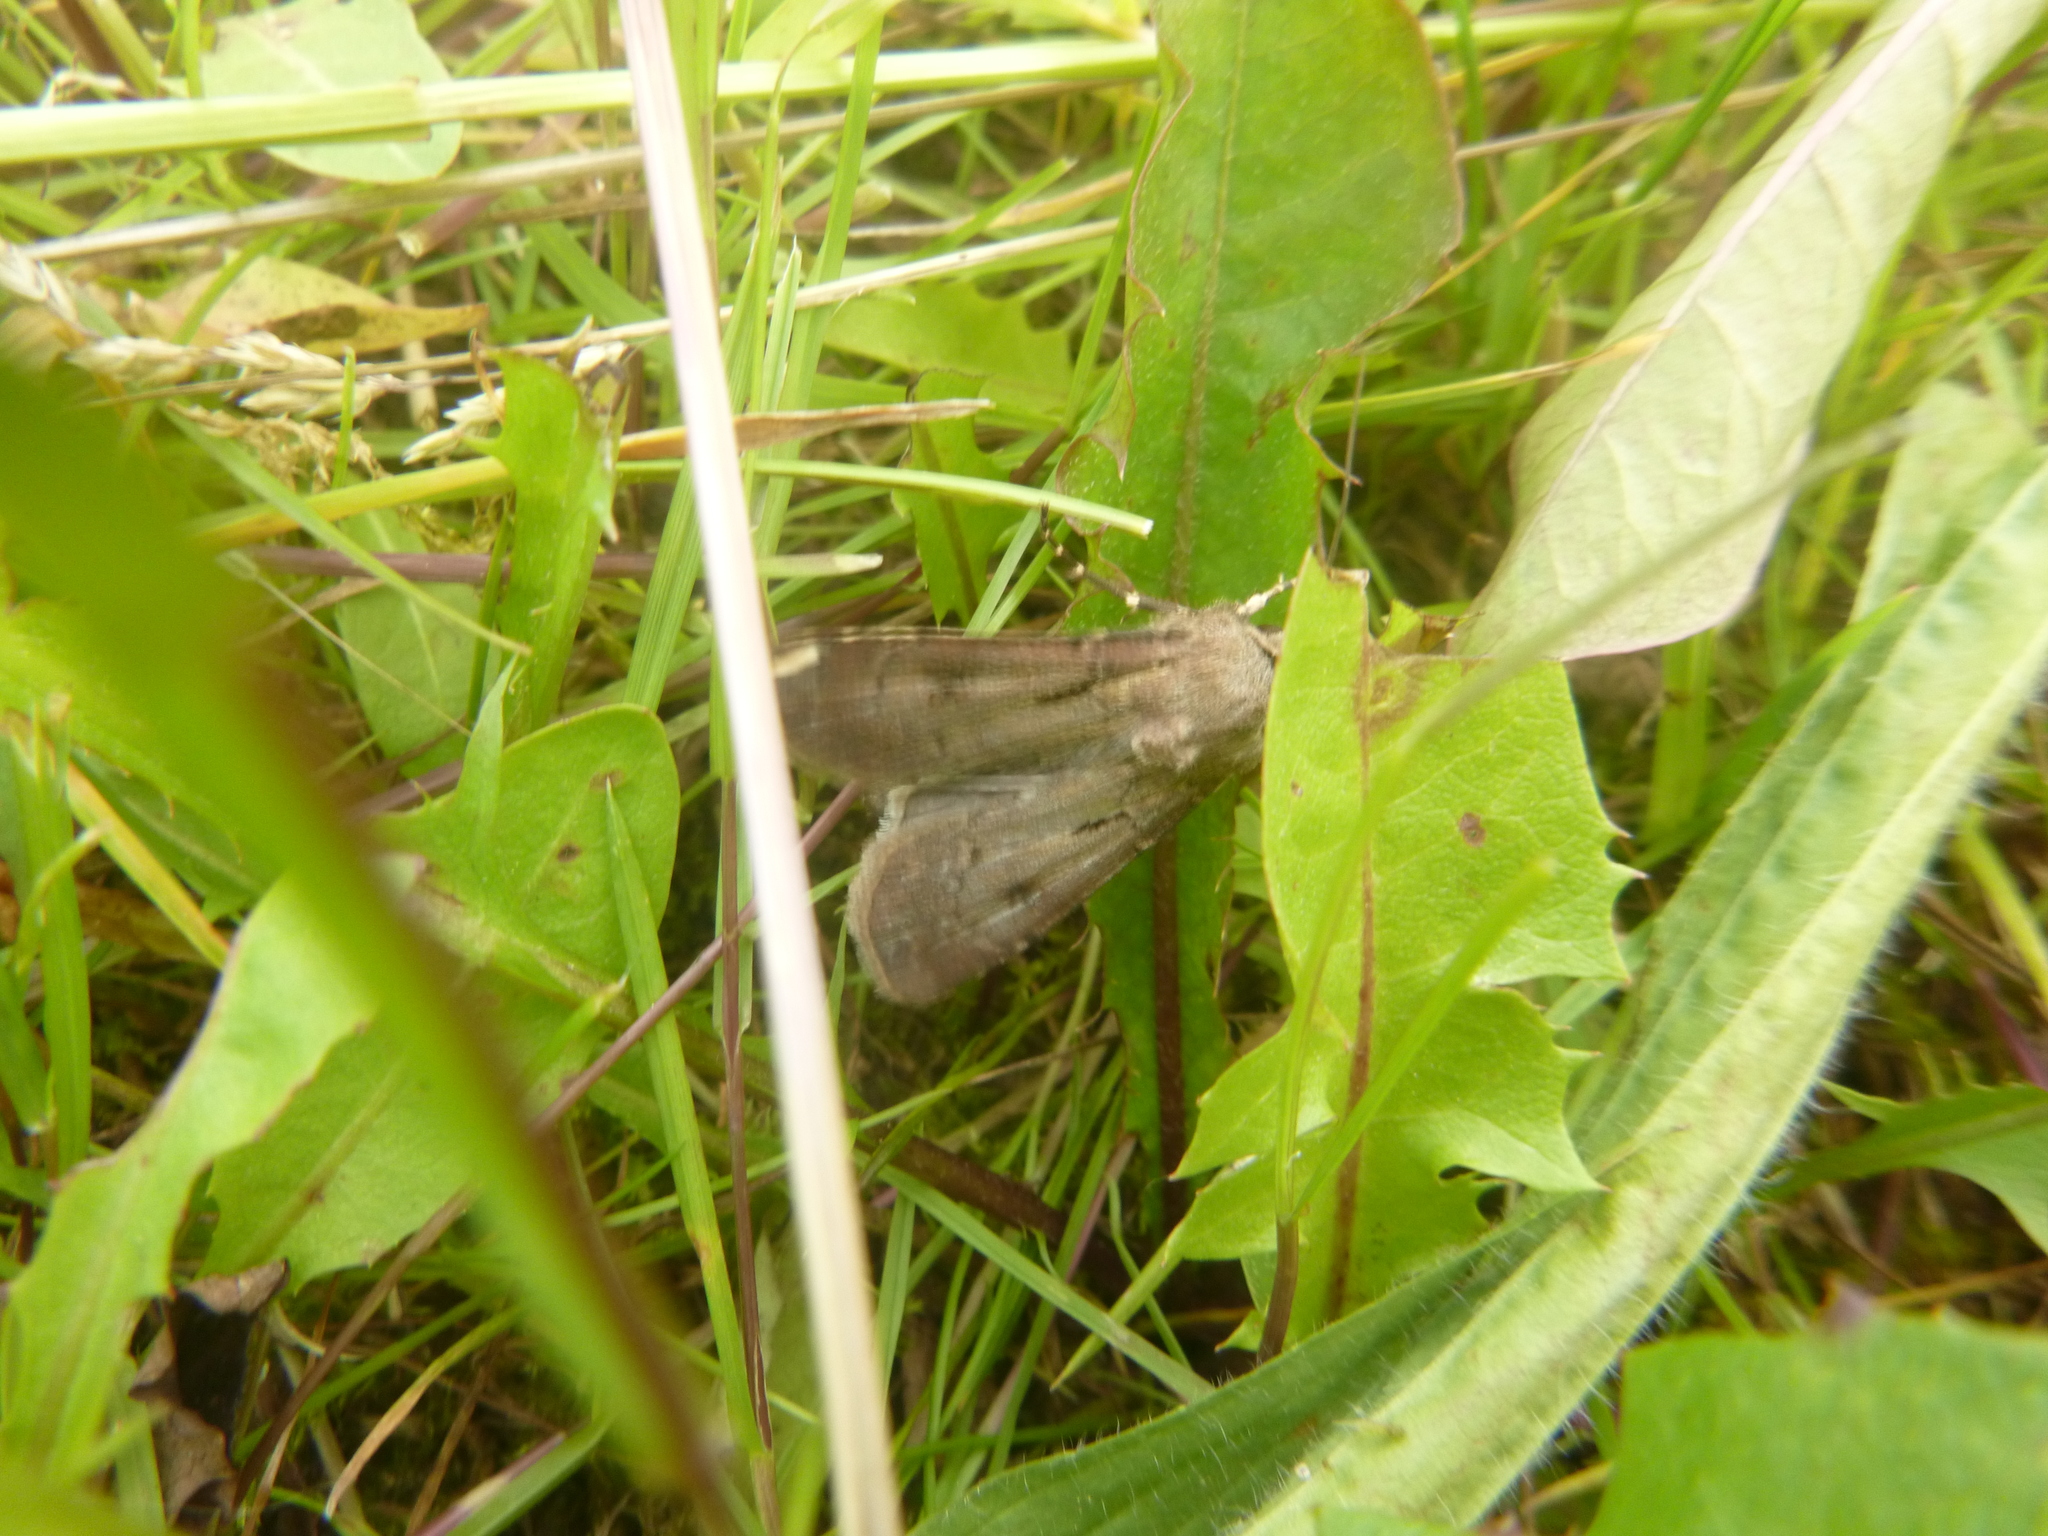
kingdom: Animalia
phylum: Arthropoda
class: Insecta
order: Lepidoptera
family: Noctuidae
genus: Agrotis
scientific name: Agrotis exclamationis
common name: Heart and dart
